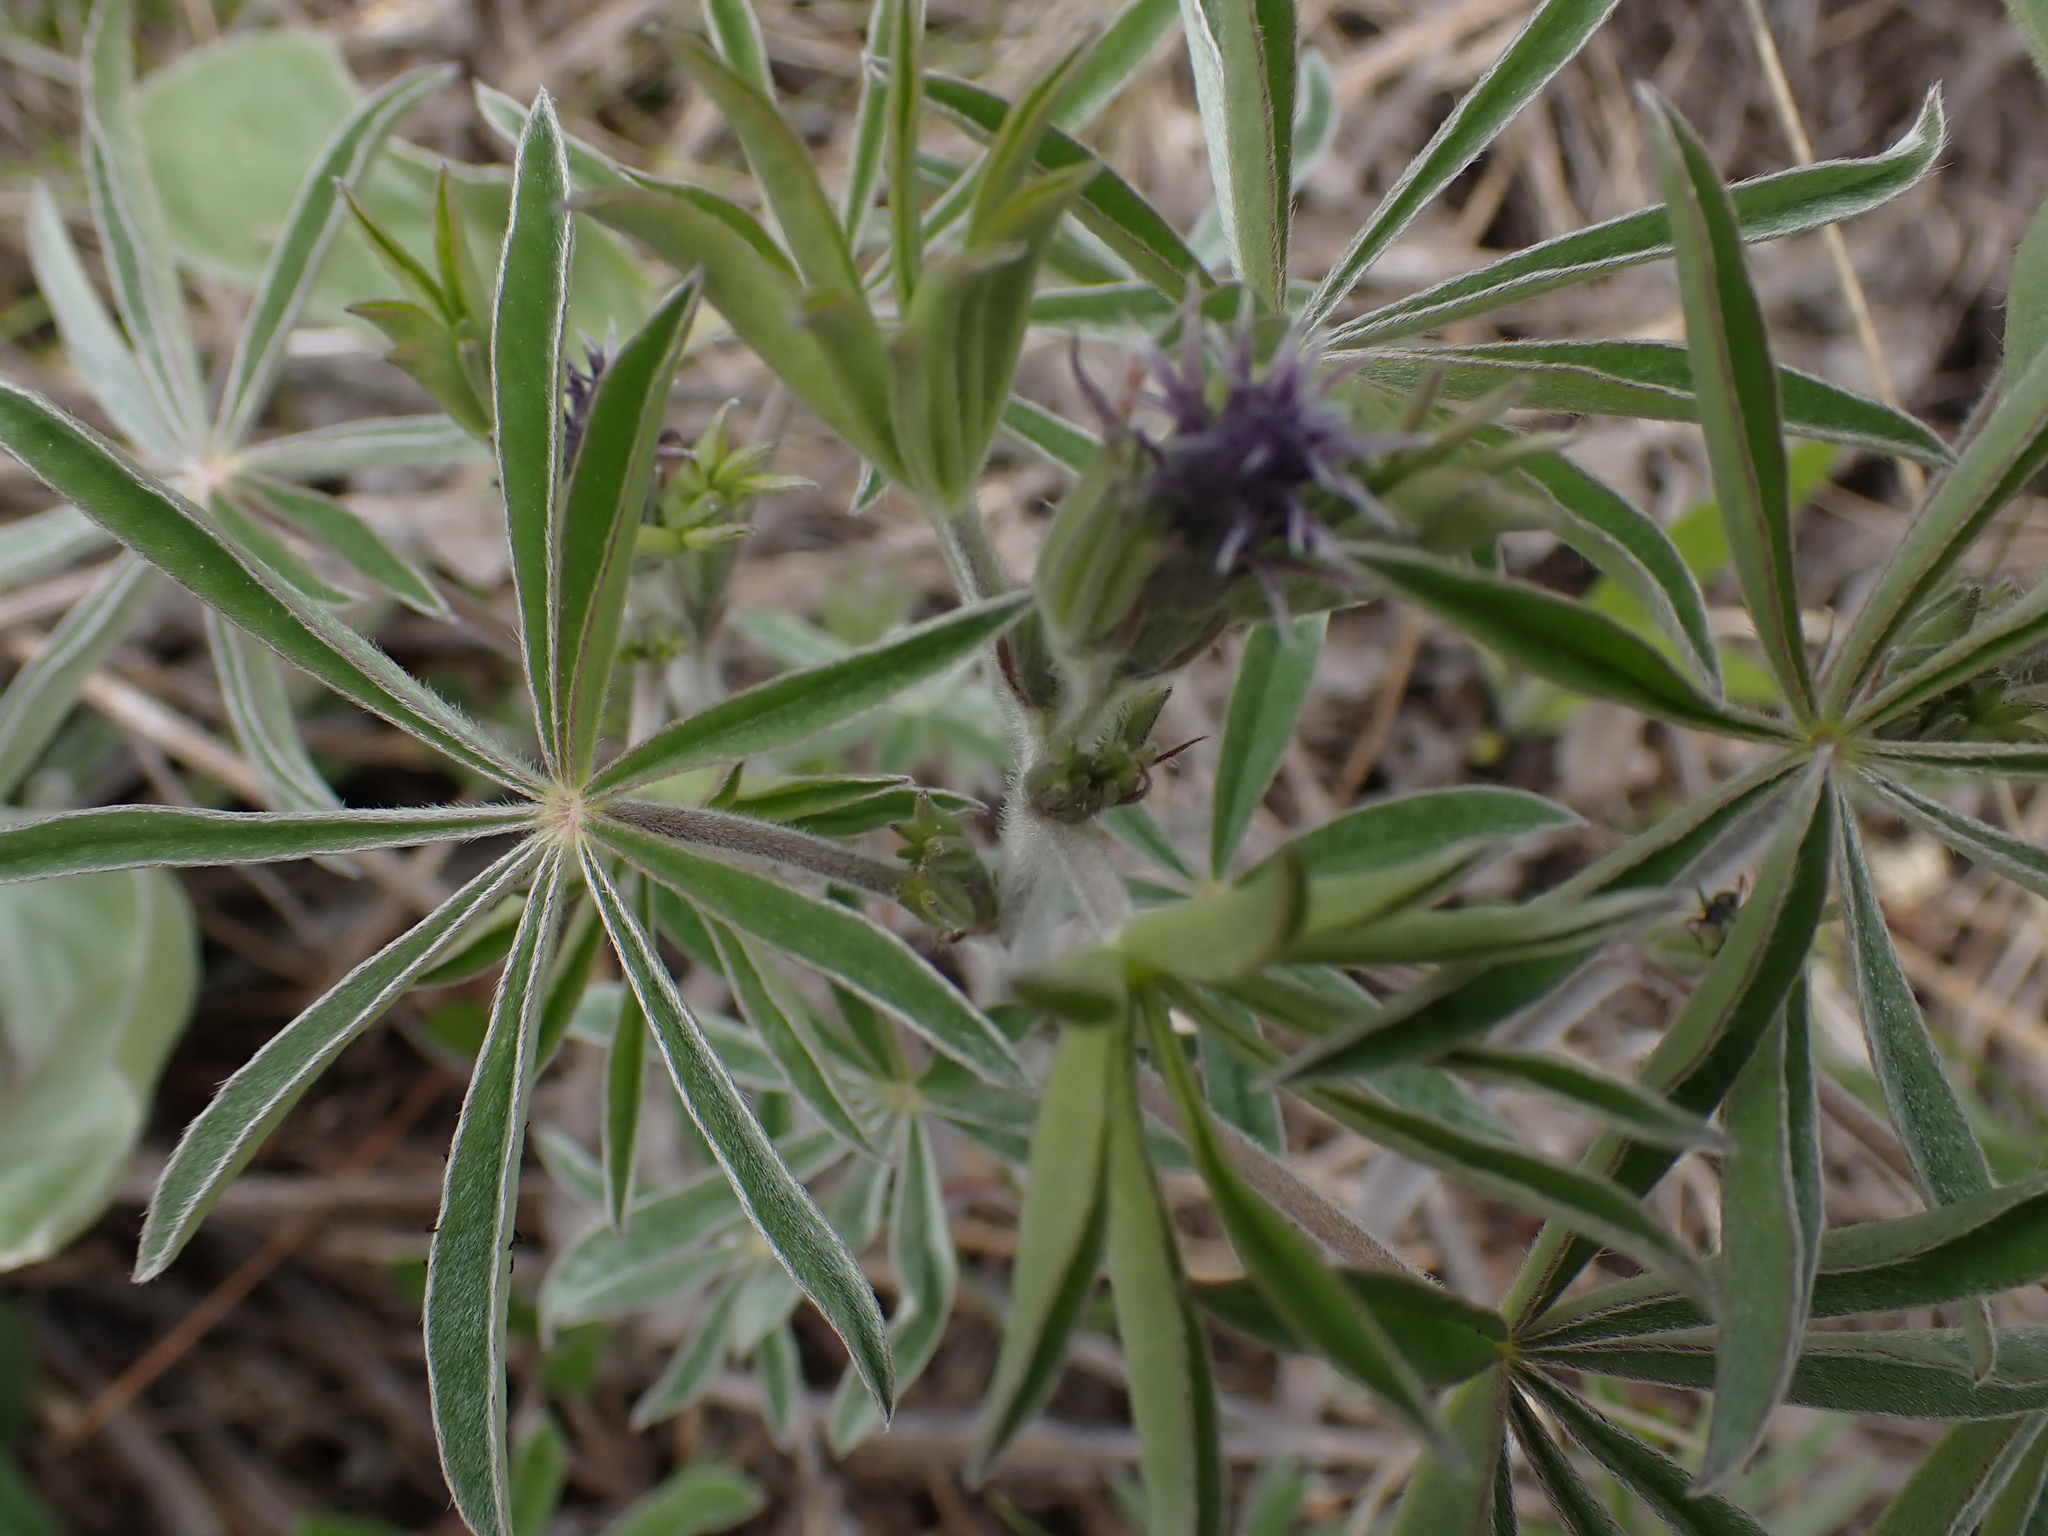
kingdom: Plantae
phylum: Tracheophyta
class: Magnoliopsida
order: Fabales
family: Fabaceae
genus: Lupinus
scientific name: Lupinus sericeus
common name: Silky lupine
